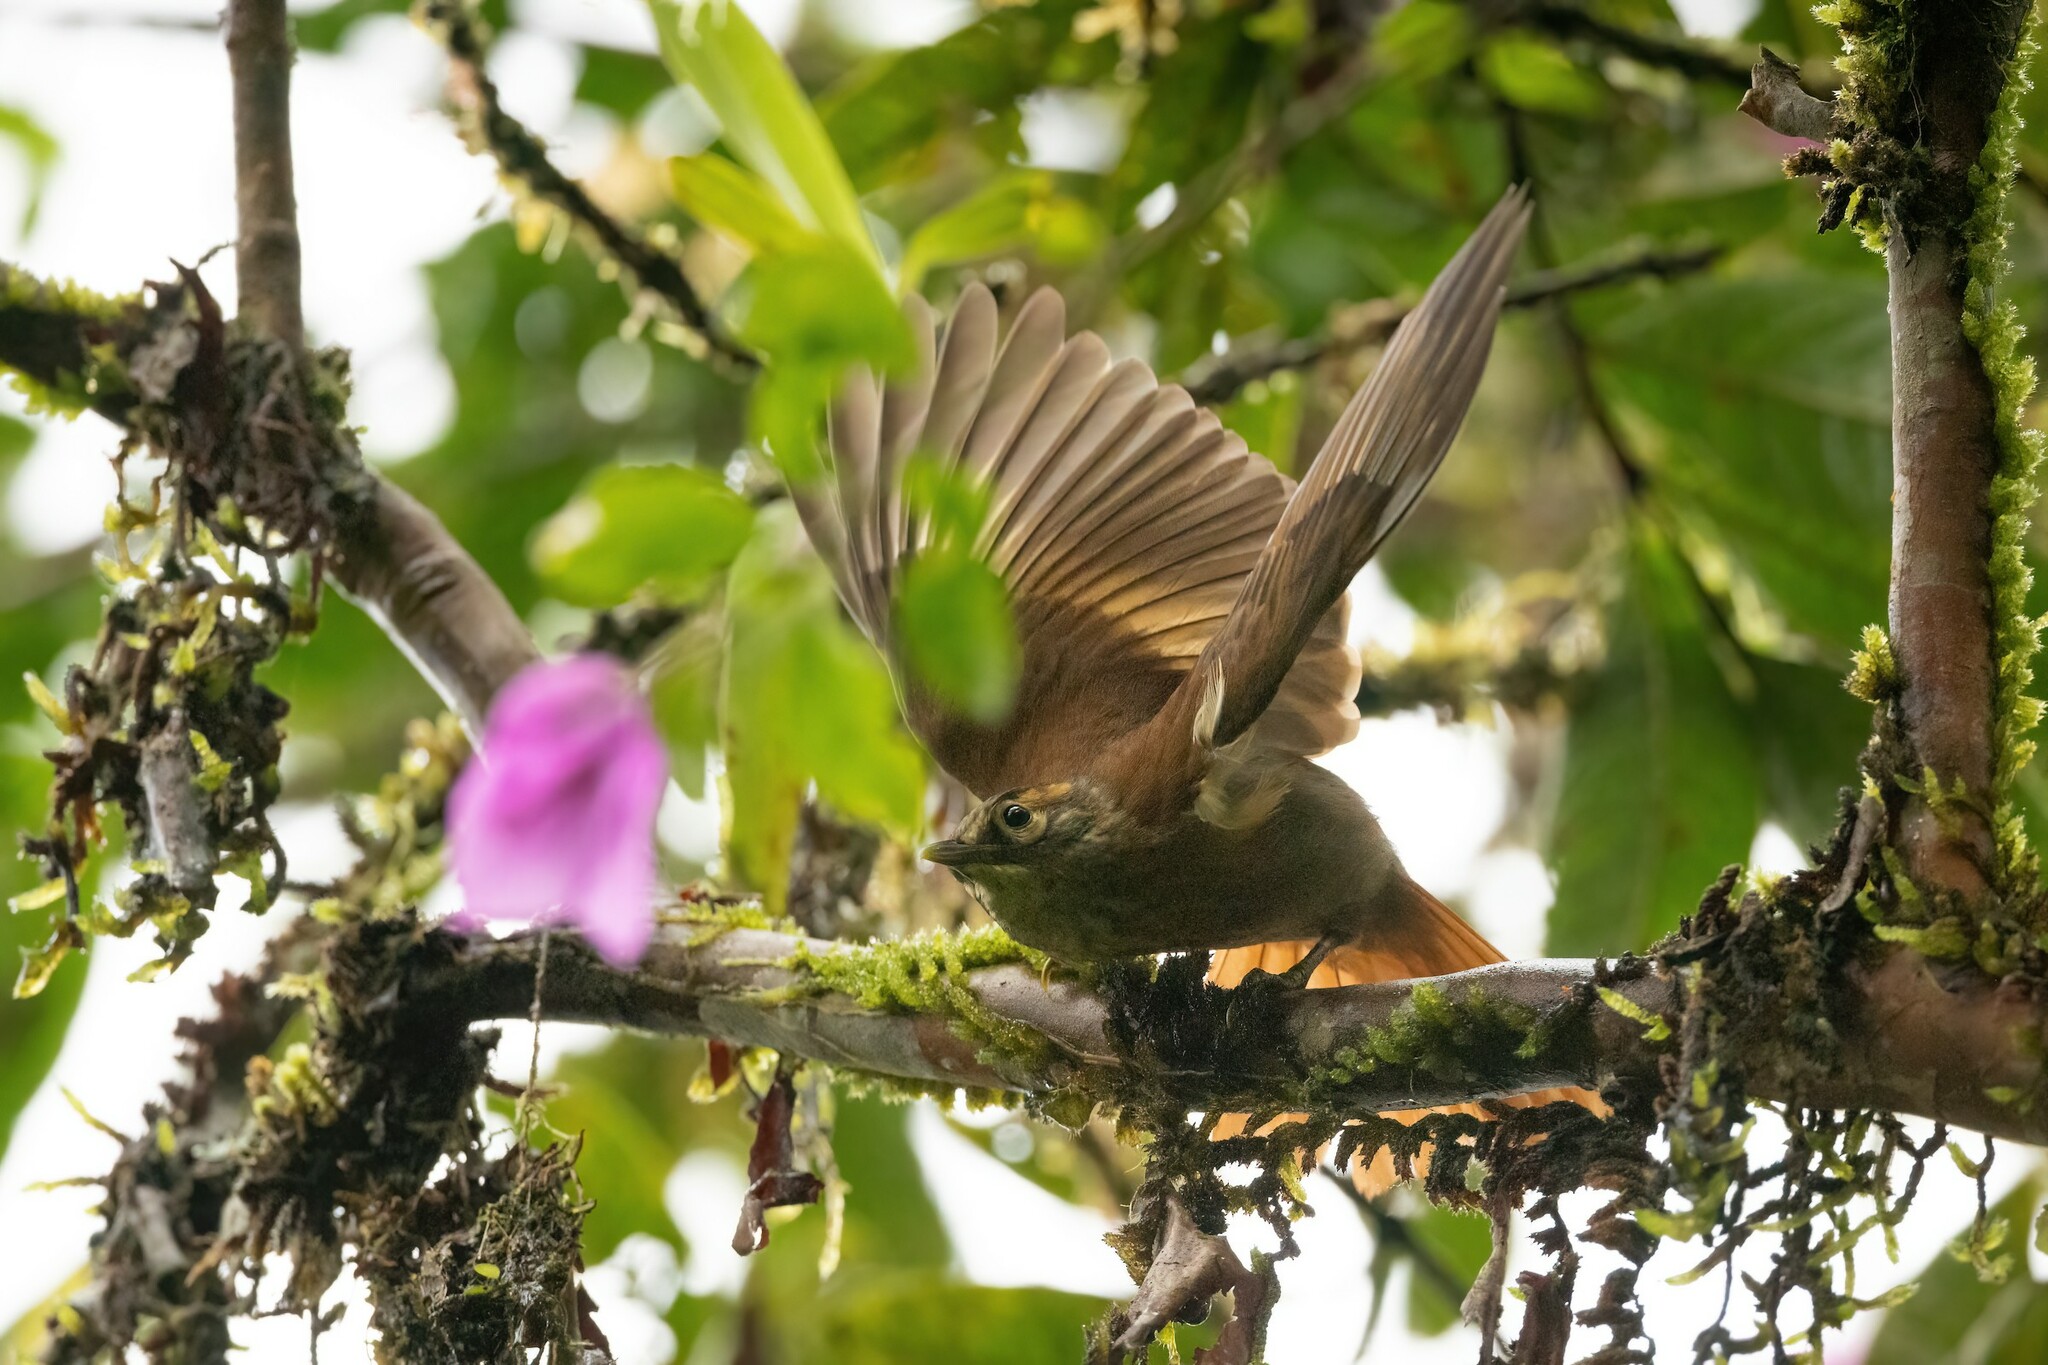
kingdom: Animalia
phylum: Chordata
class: Aves
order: Passeriformes
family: Furnariidae
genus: Anabacerthia
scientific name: Anabacerthia variegaticeps
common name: Scaly-throated foliage-gleaner
